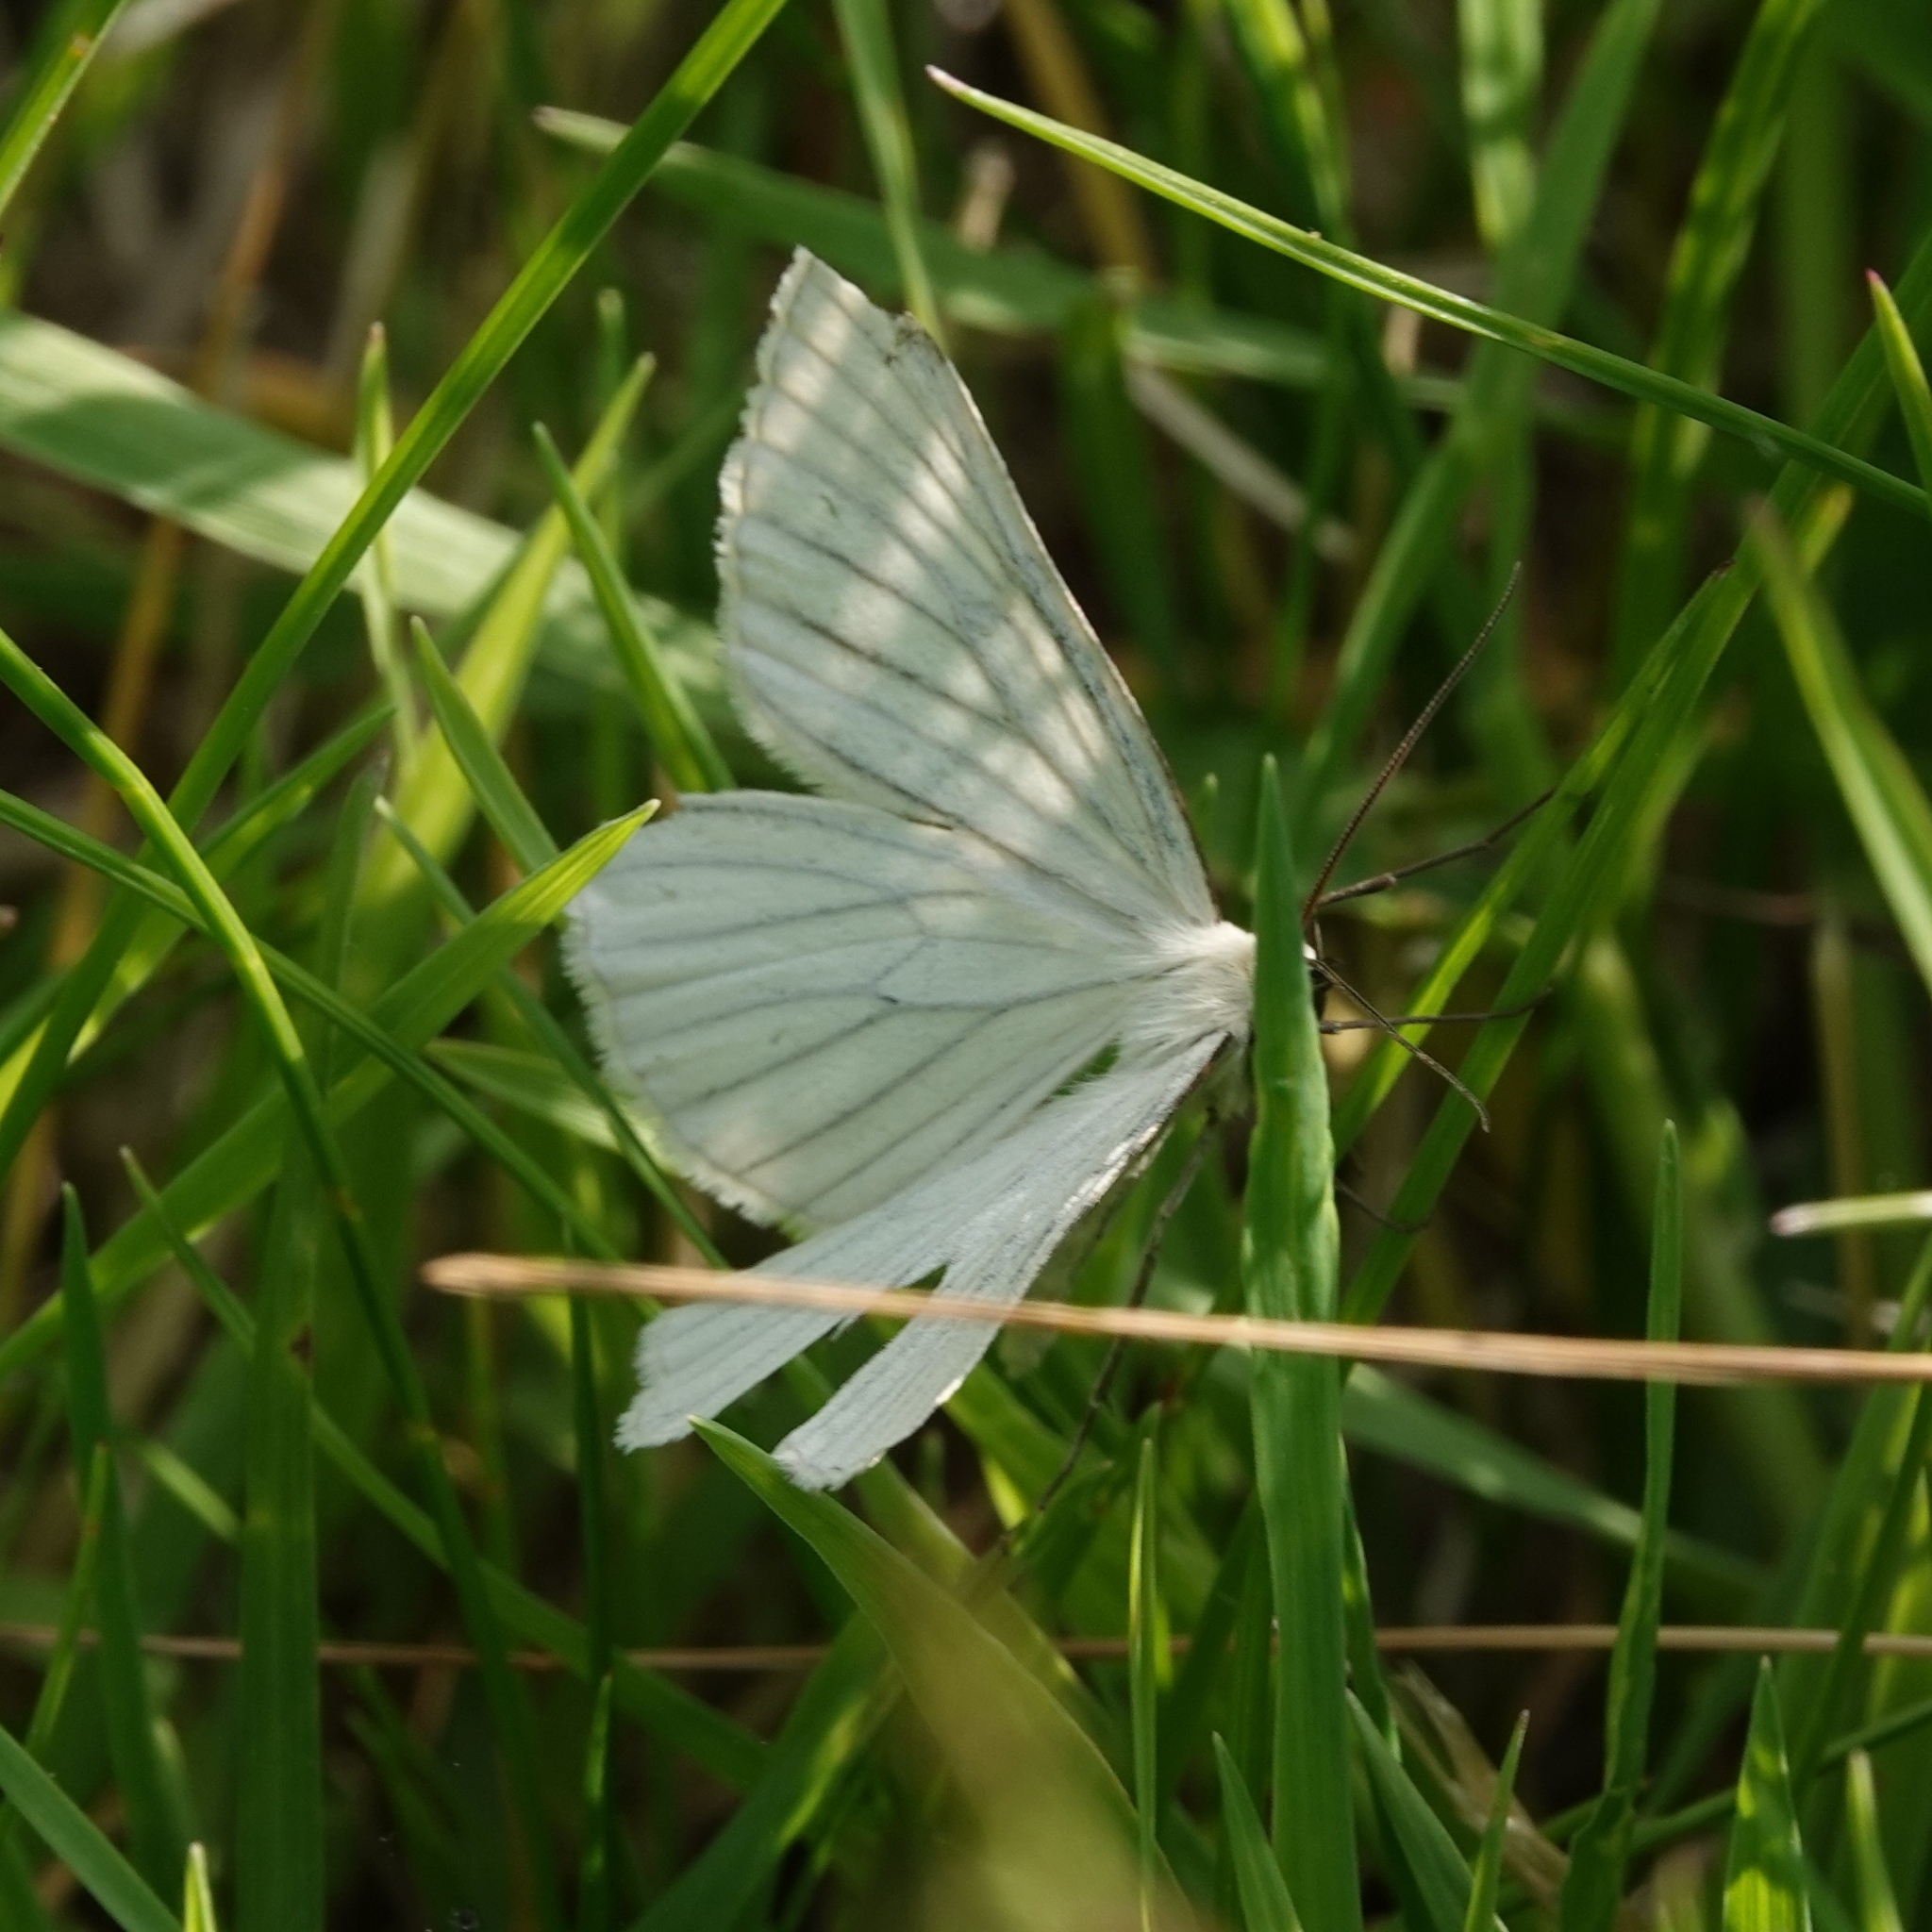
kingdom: Animalia
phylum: Arthropoda
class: Insecta
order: Lepidoptera
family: Geometridae
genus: Siona
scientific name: Siona lineata
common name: Black-veined moth
